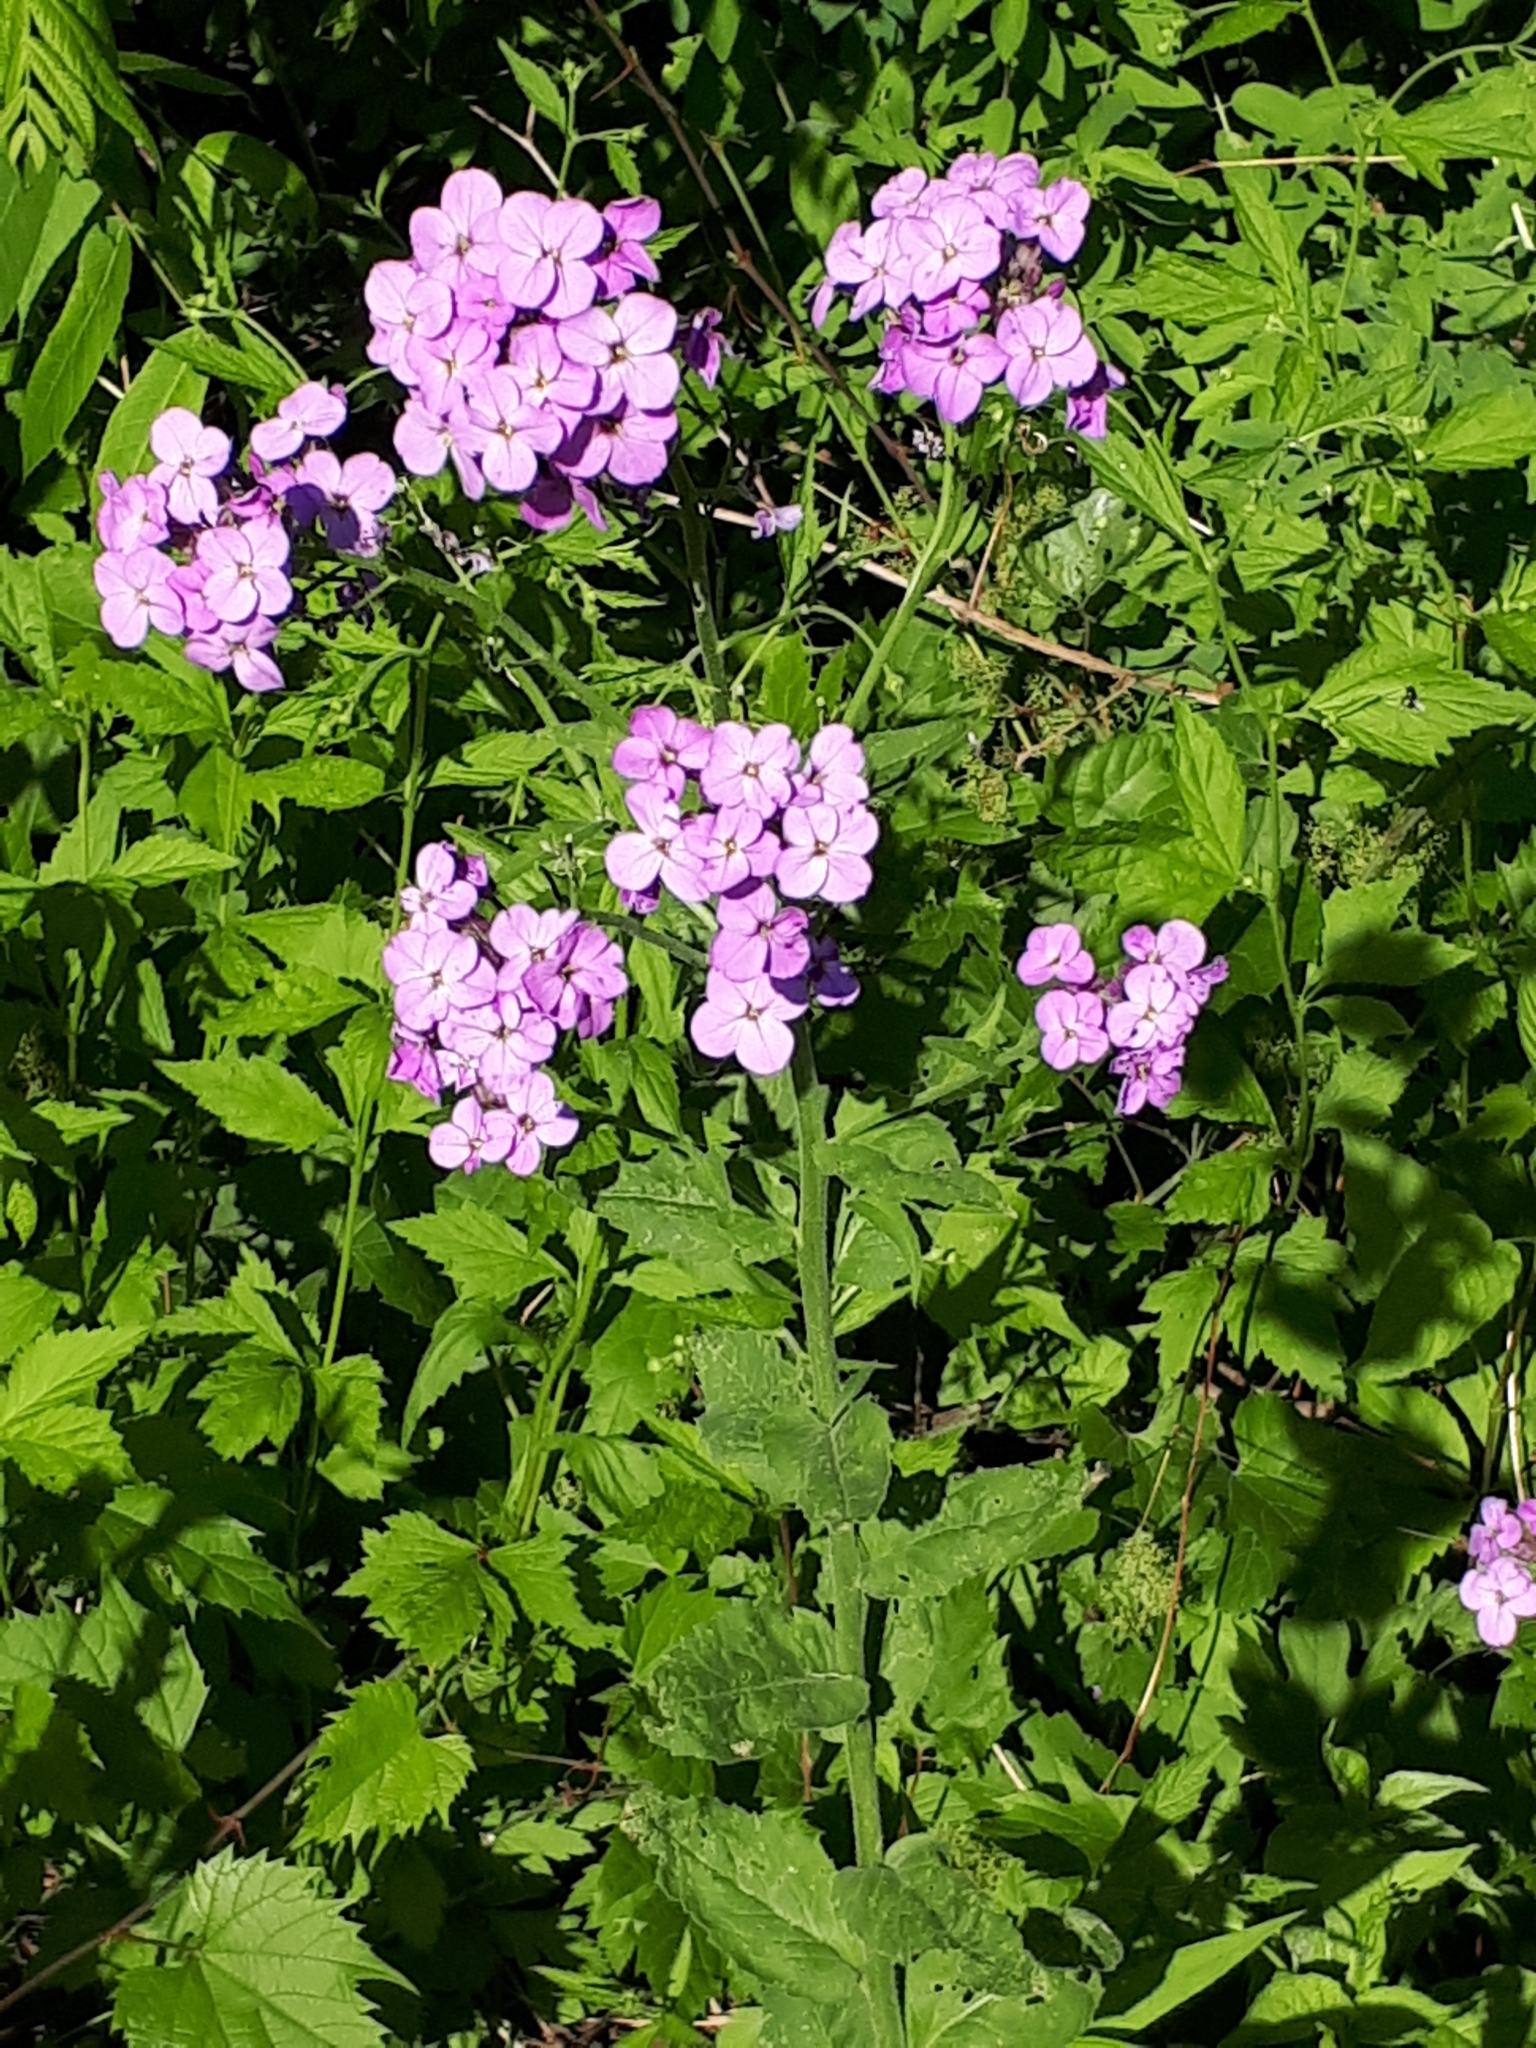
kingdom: Plantae
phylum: Tracheophyta
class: Magnoliopsida
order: Brassicales
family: Brassicaceae
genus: Hesperis
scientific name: Hesperis matronalis
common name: Dame's-violet
